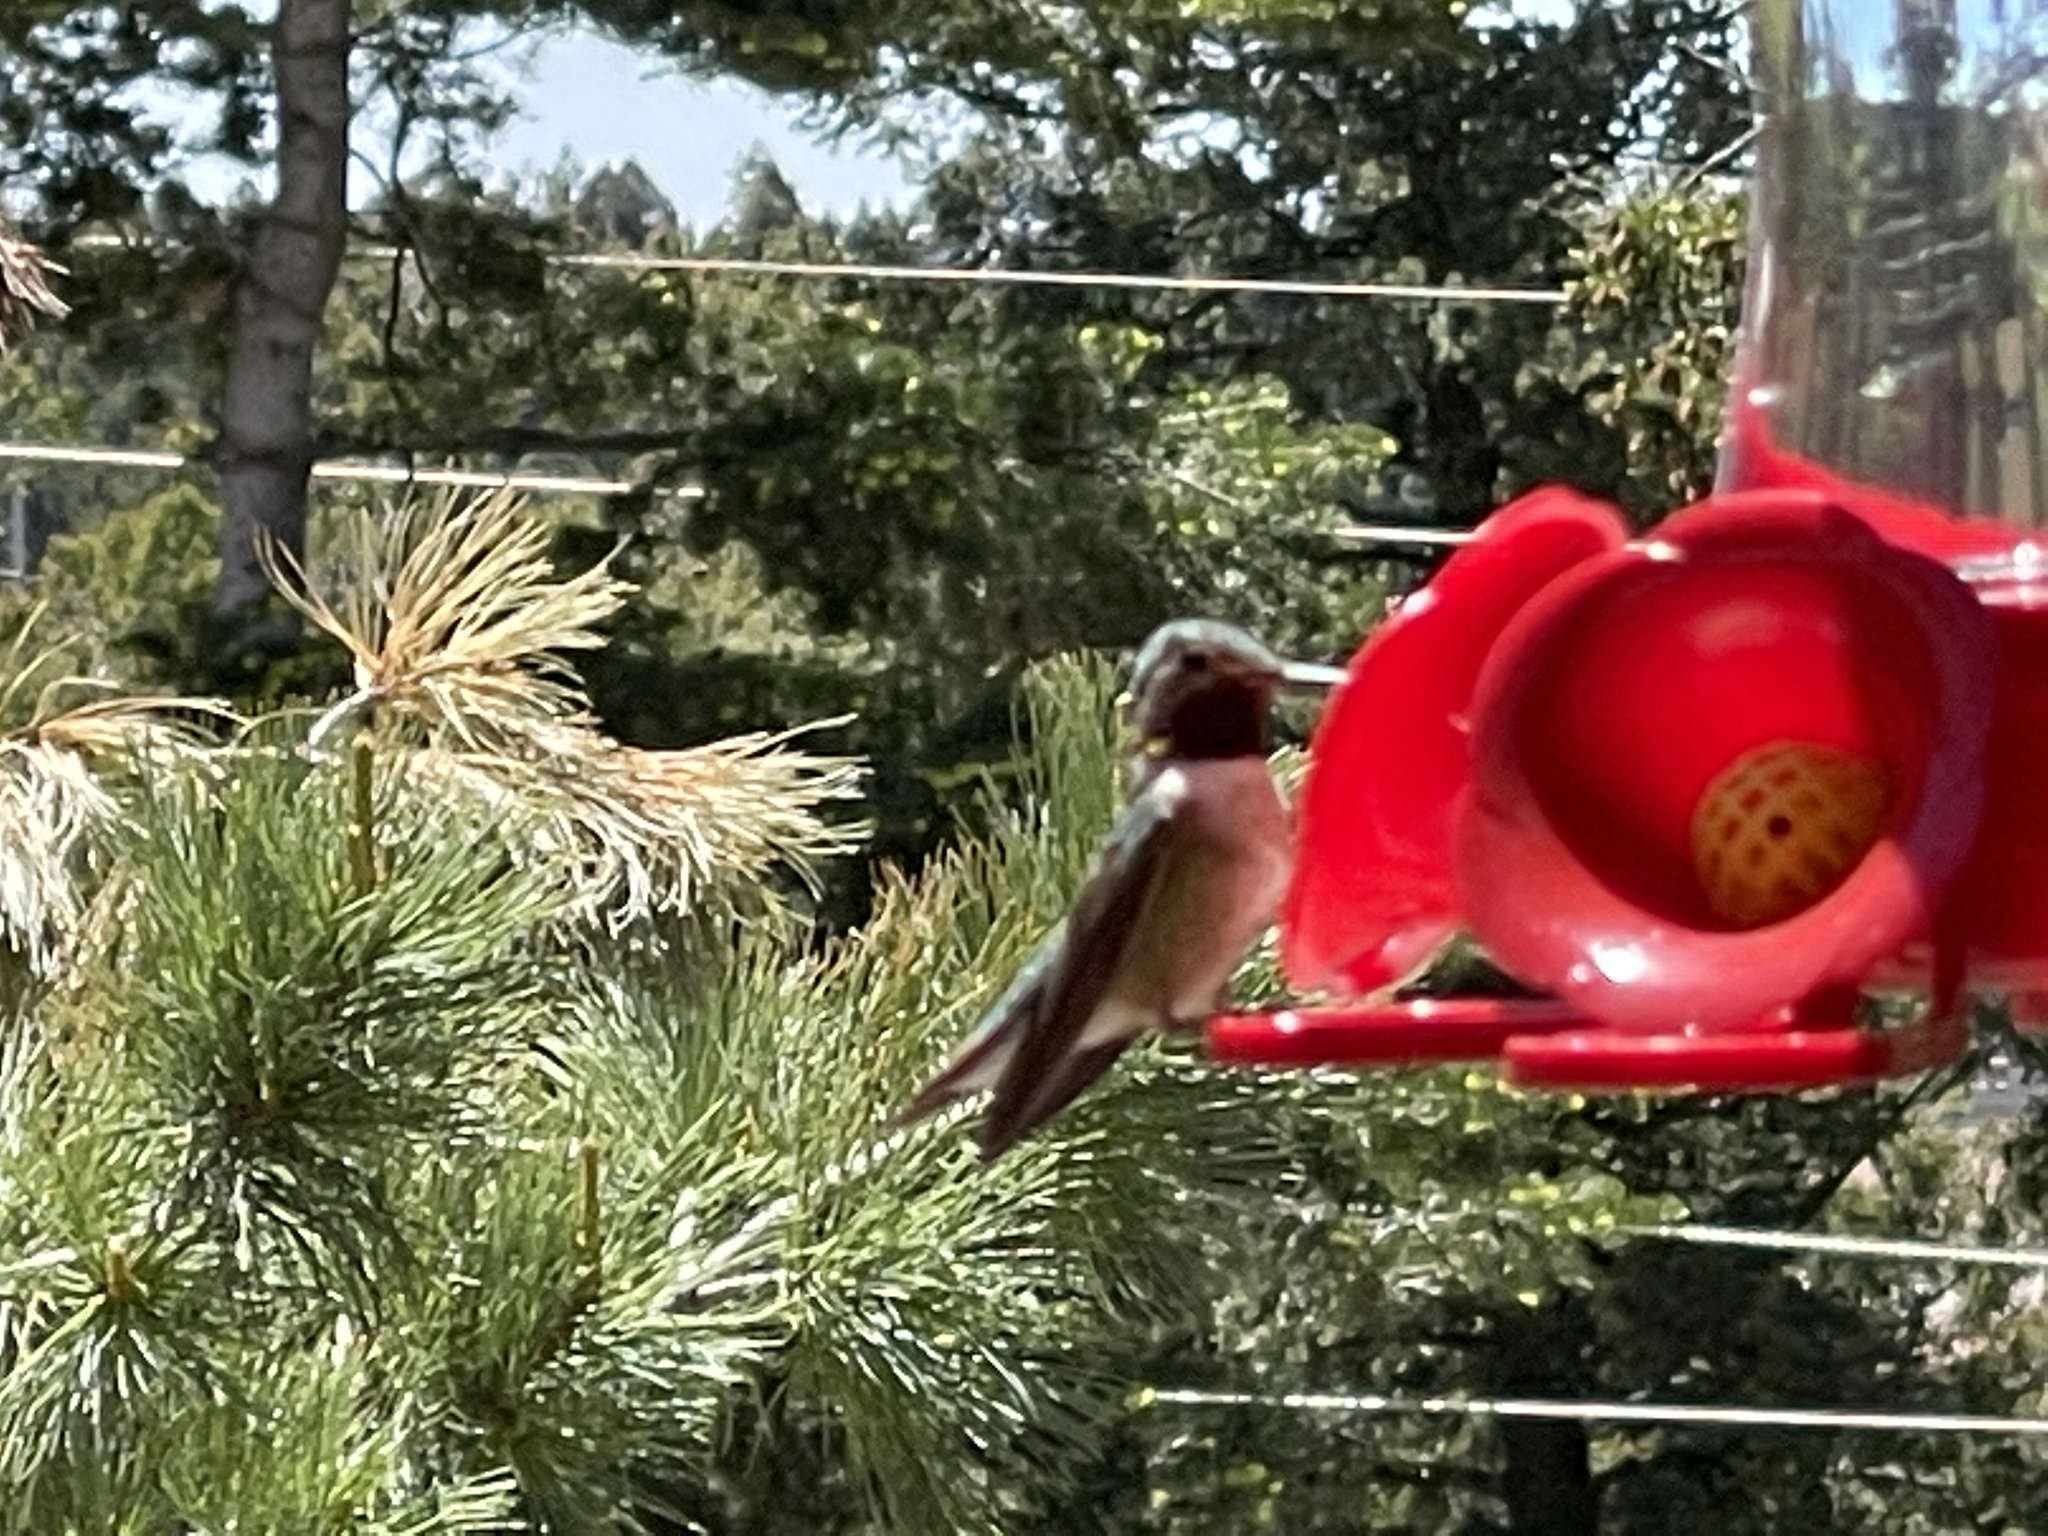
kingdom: Animalia
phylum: Chordata
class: Aves
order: Apodiformes
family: Trochilidae
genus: Selasphorus
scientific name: Selasphorus platycercus
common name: Broad-tailed hummingbird
